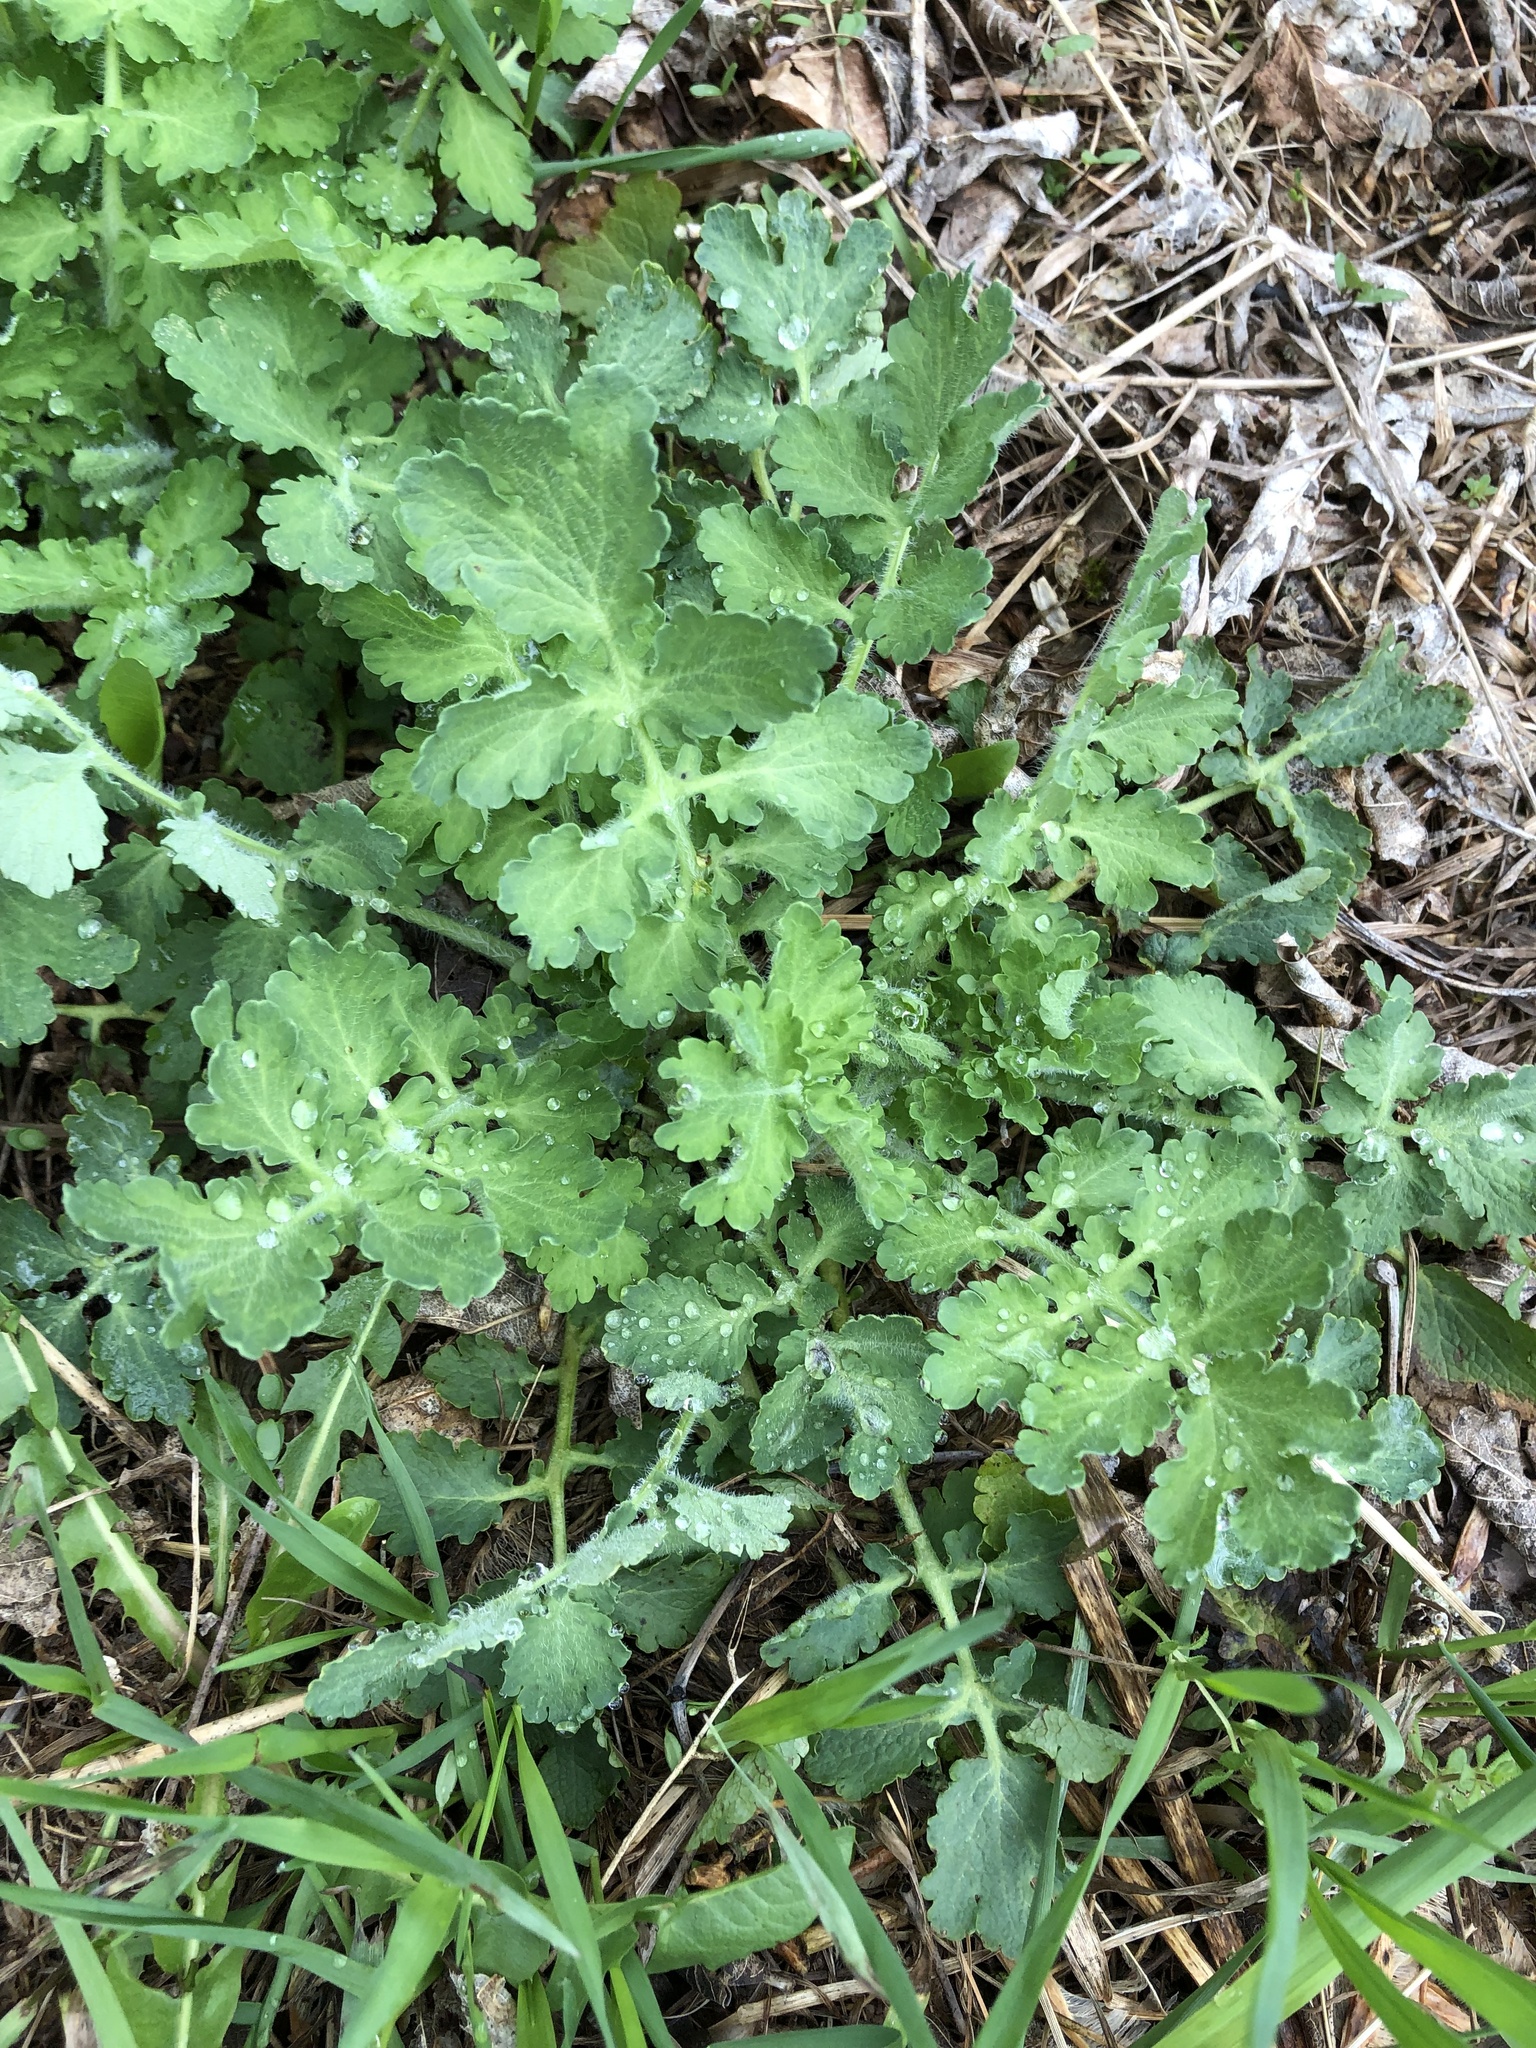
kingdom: Plantae
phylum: Tracheophyta
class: Magnoliopsida
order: Ranunculales
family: Papaveraceae
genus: Chelidonium
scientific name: Chelidonium majus
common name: Greater celandine
